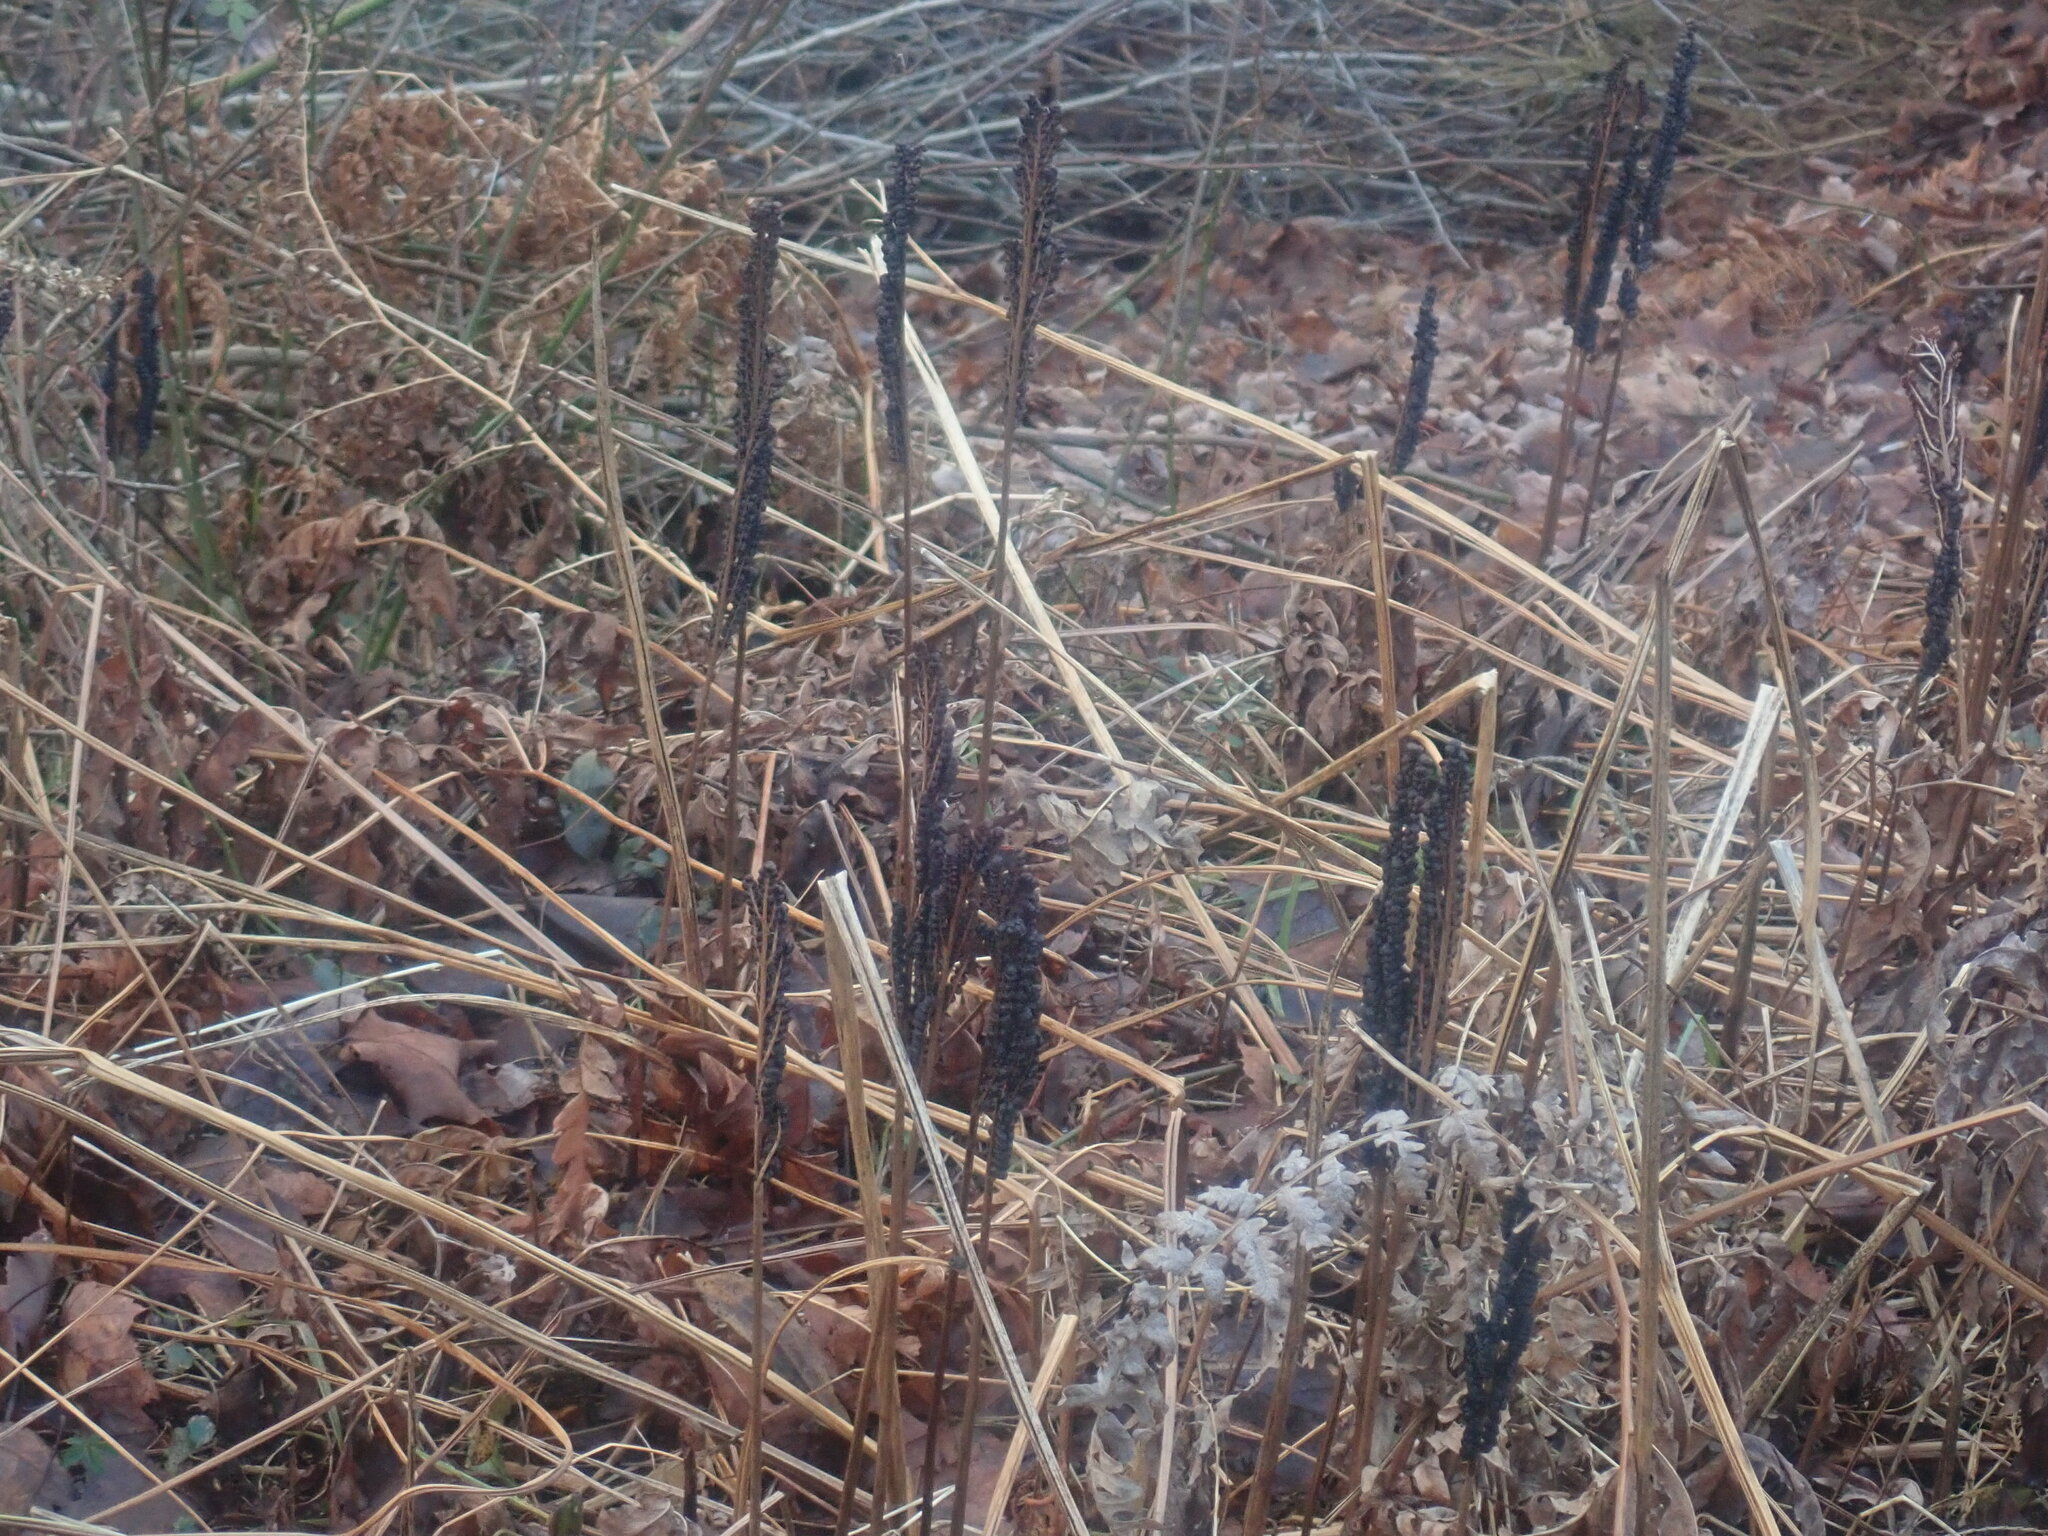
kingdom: Plantae
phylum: Tracheophyta
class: Polypodiopsida
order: Polypodiales
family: Onocleaceae
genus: Onoclea
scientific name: Onoclea sensibilis
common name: Sensitive fern
